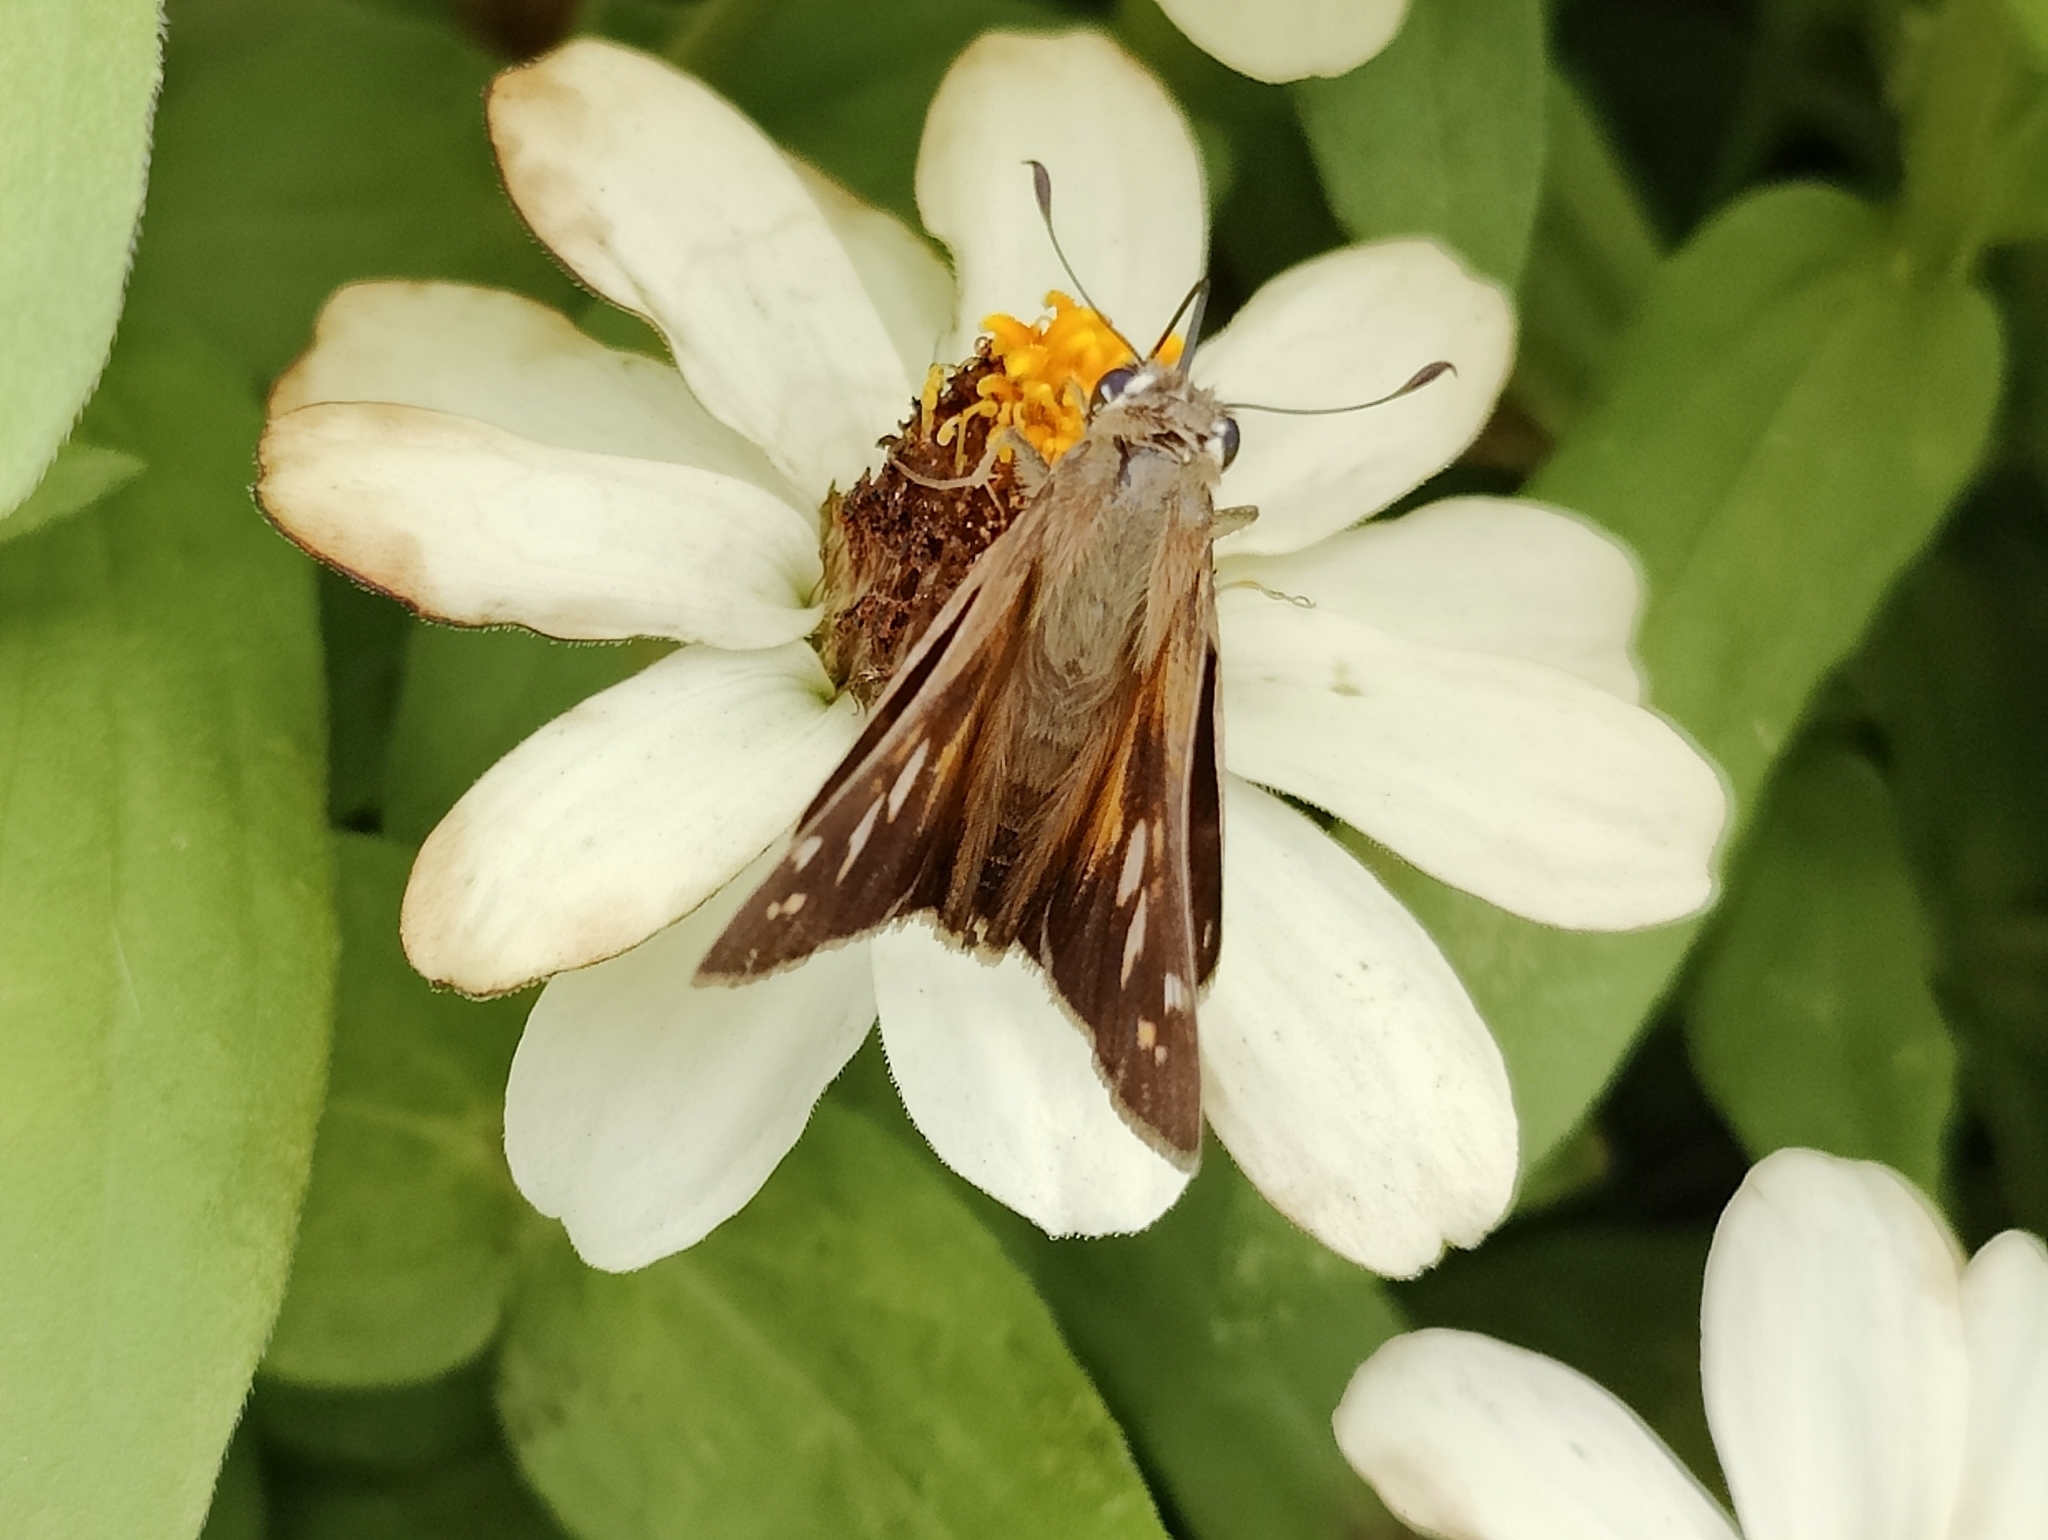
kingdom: Animalia
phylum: Arthropoda
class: Insecta
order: Lepidoptera
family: Hesperiidae
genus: Atalopedes
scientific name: Atalopedes
